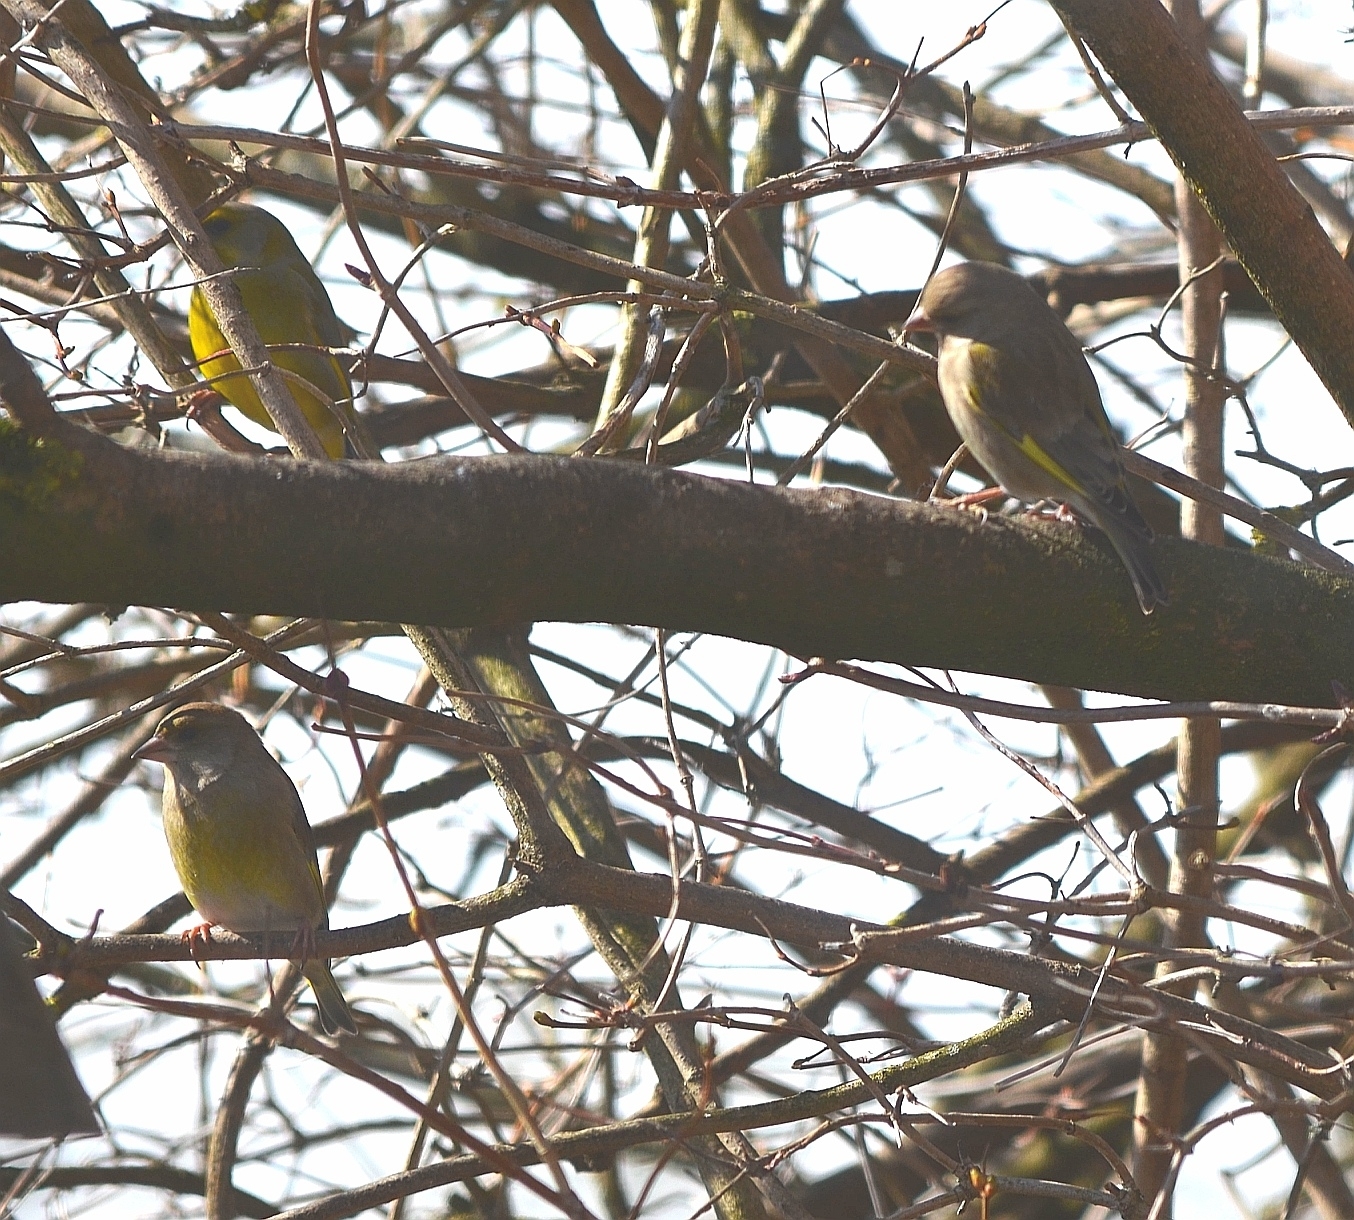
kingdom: Plantae
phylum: Tracheophyta
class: Liliopsida
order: Poales
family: Poaceae
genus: Chloris
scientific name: Chloris chloris
